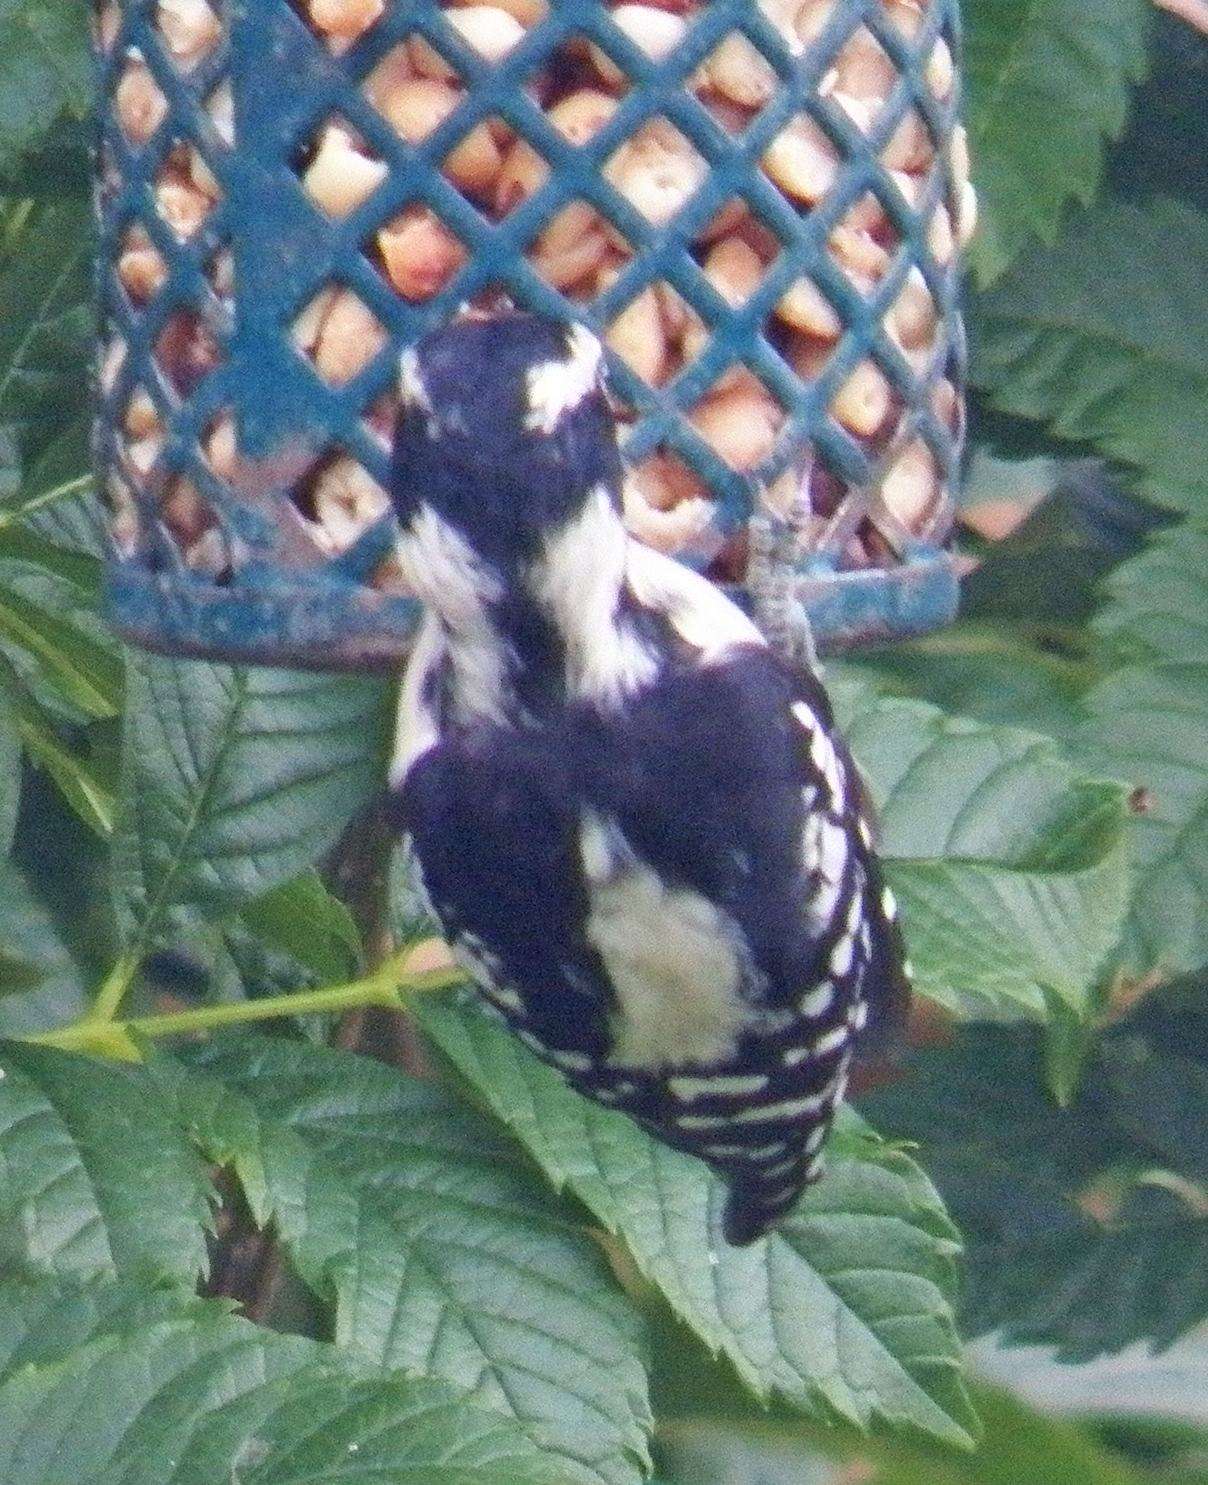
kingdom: Animalia
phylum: Chordata
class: Aves
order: Piciformes
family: Picidae
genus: Dryobates
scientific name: Dryobates pubescens
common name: Downy woodpecker
